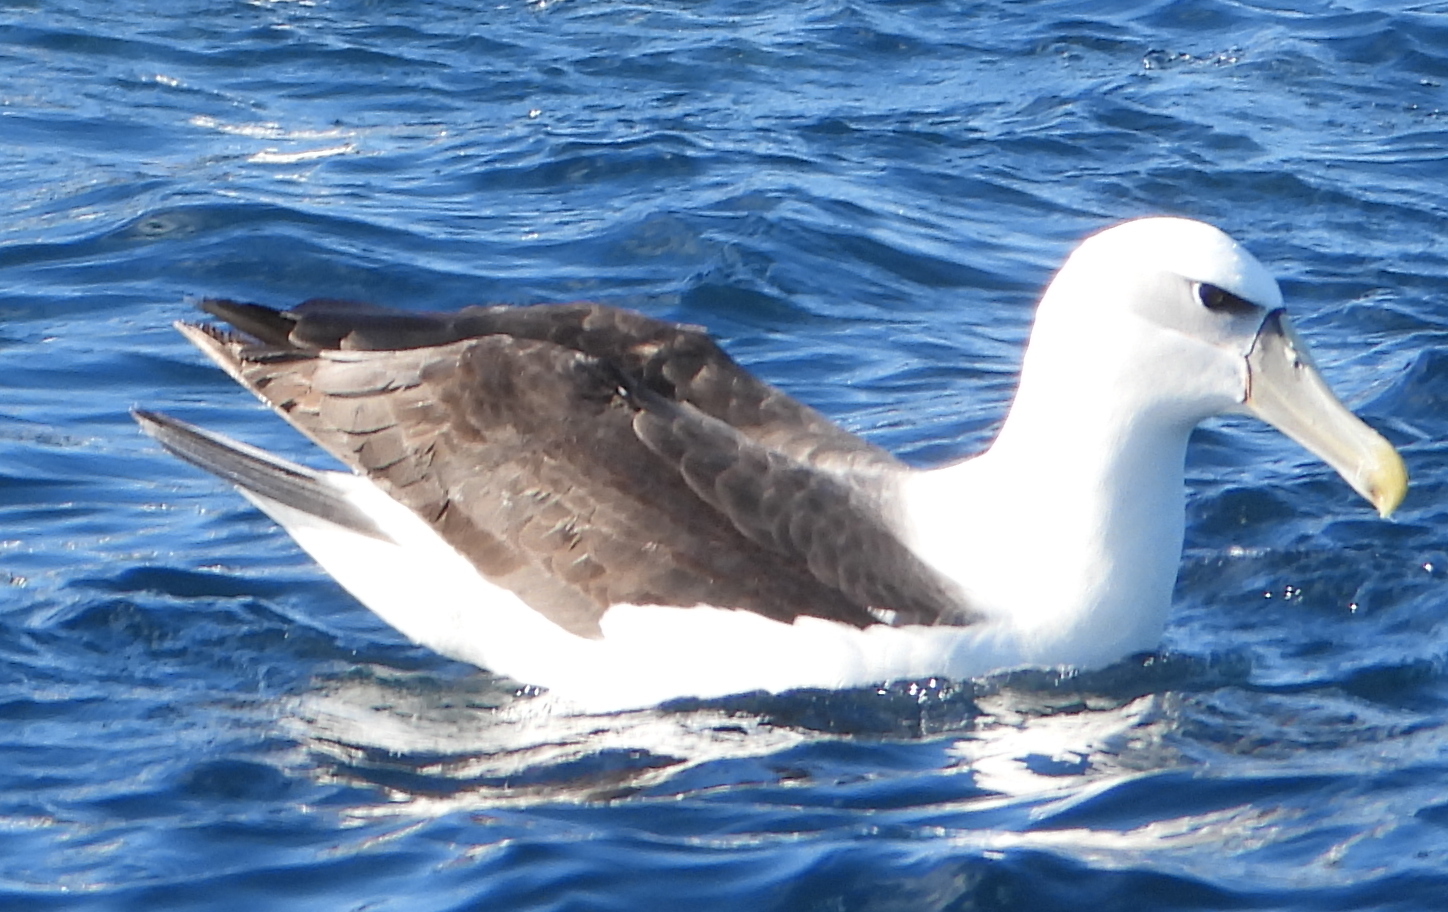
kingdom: Animalia
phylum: Chordata
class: Aves
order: Procellariiformes
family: Diomedeidae
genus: Thalassarche
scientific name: Thalassarche cauta
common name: Shy albatross
